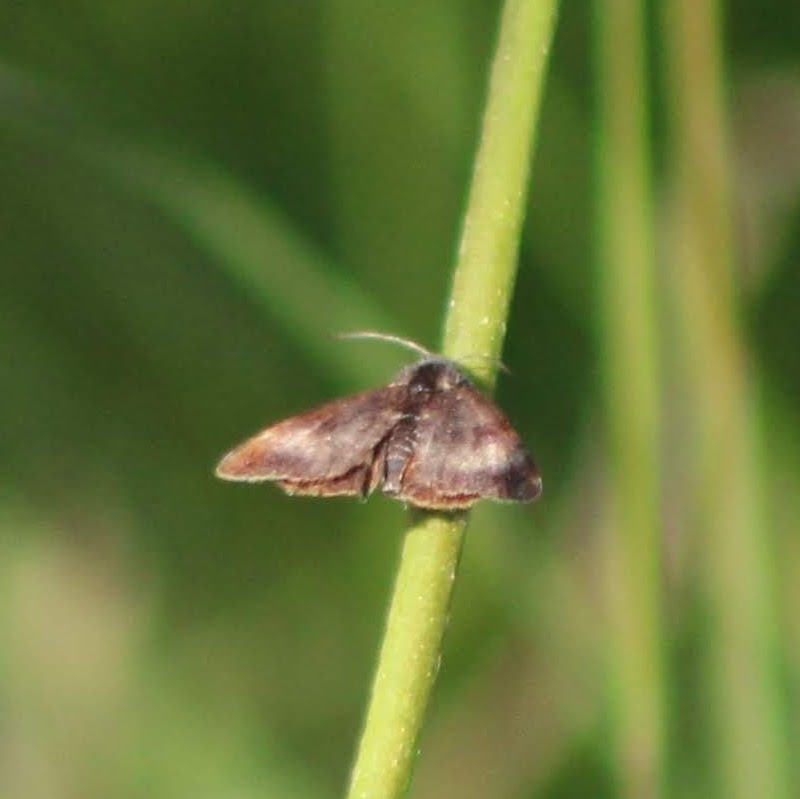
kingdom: Animalia
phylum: Arthropoda
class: Insecta
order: Lepidoptera
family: Noctuidae
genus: Panemeria
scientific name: Panemeria tenebrata
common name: Small yellow underwing
